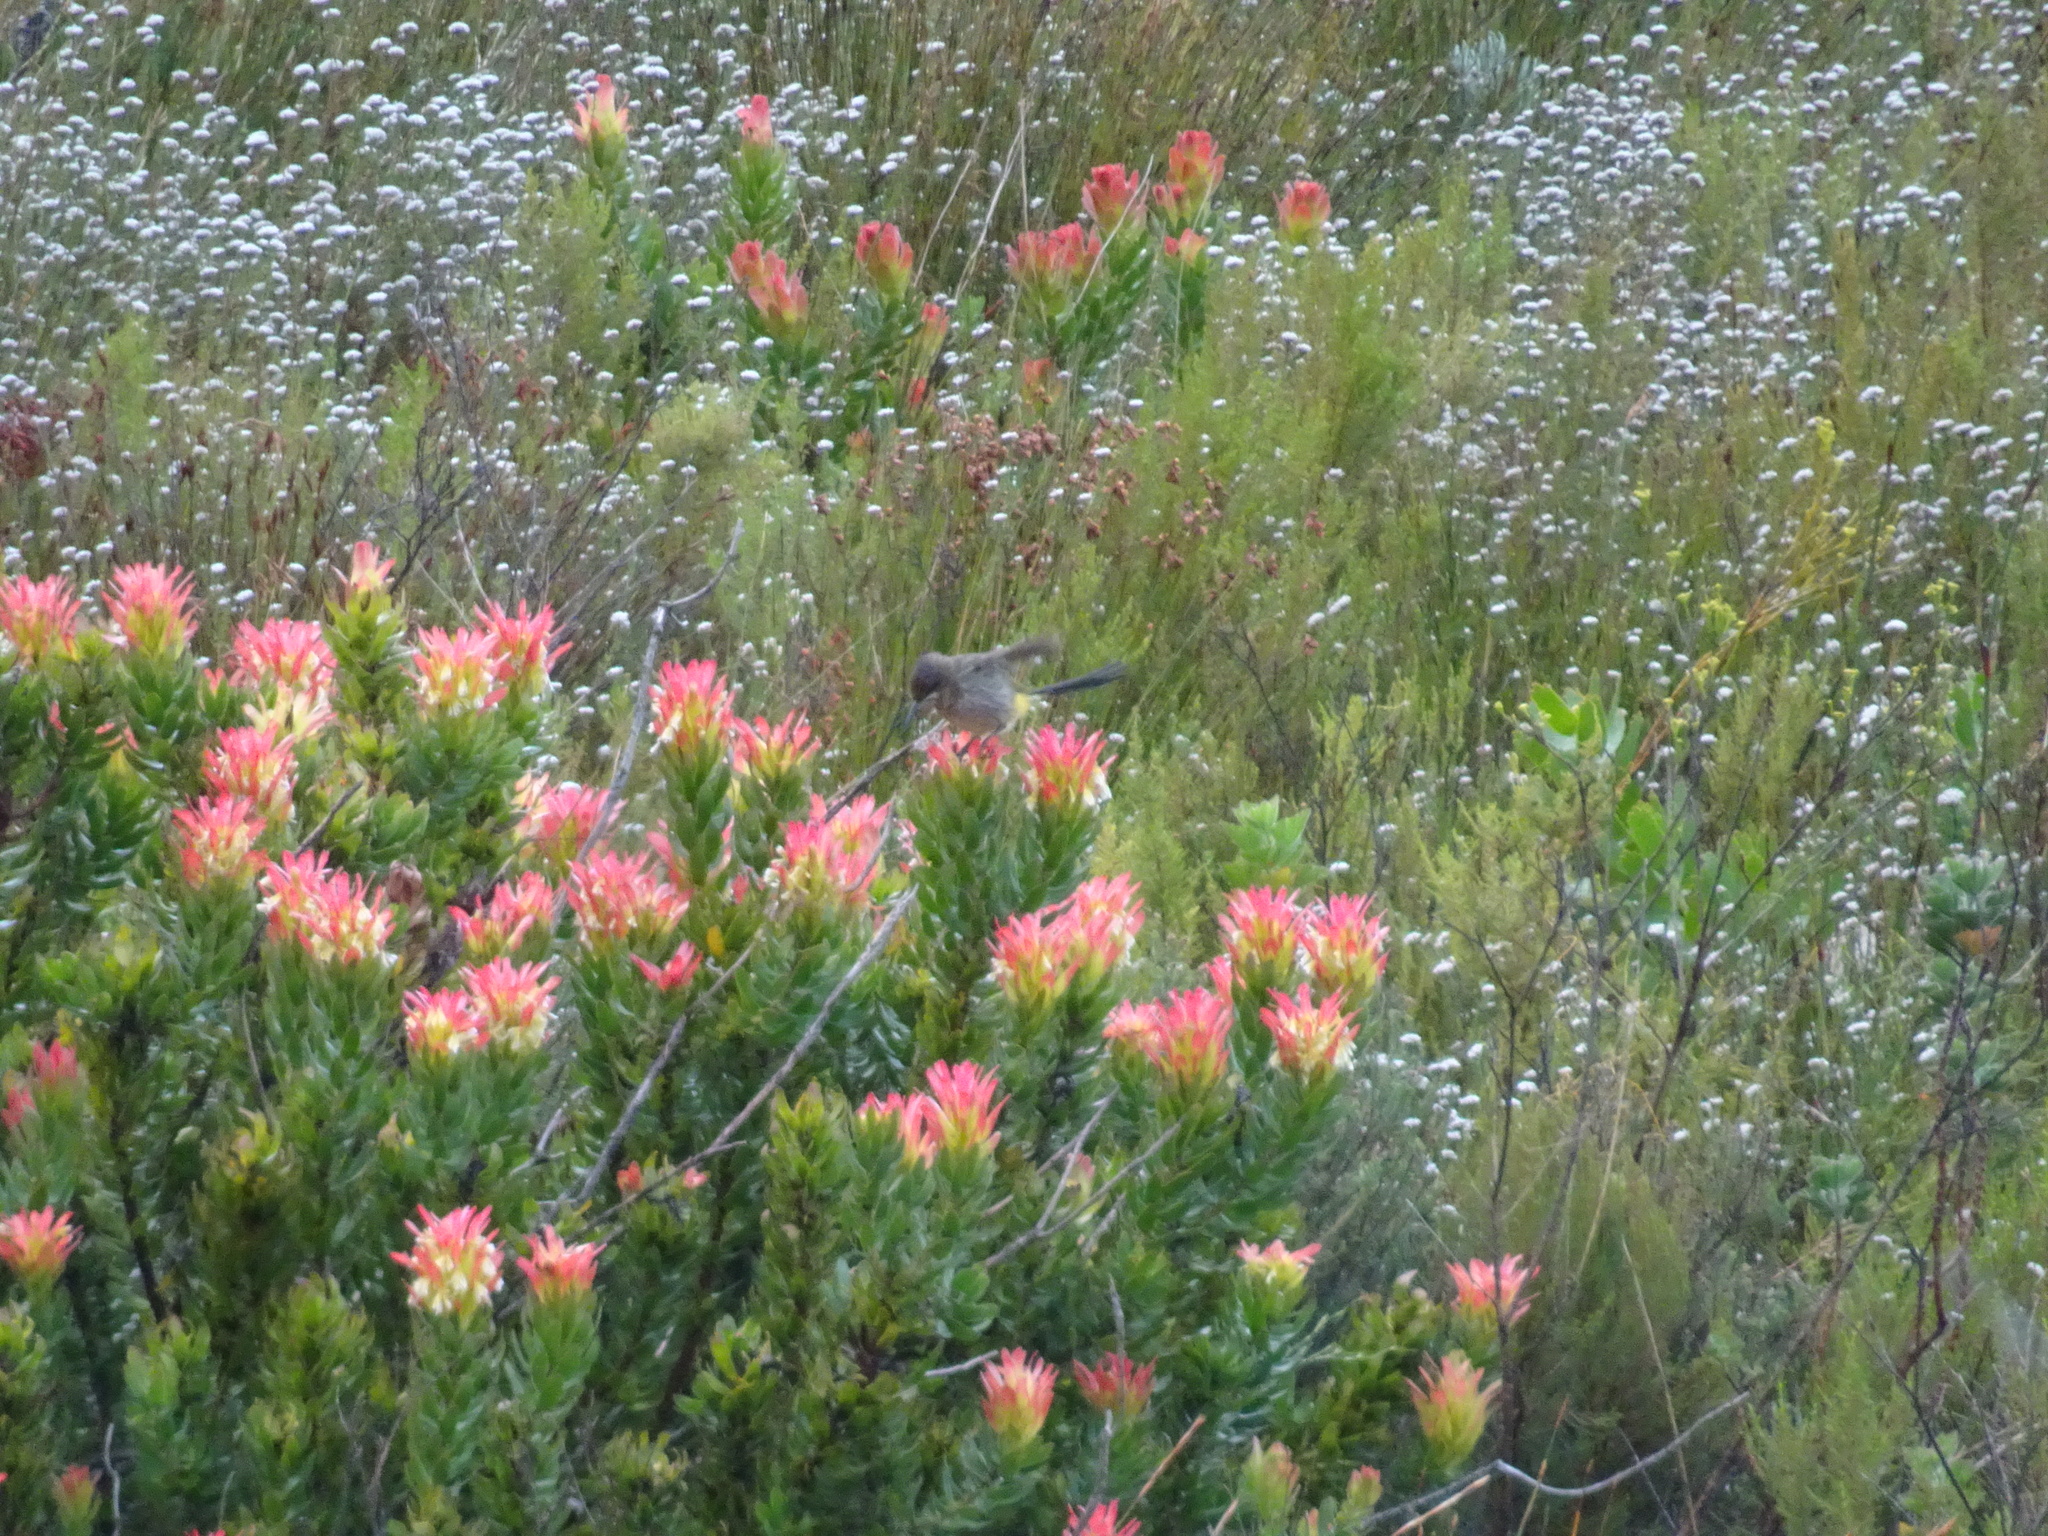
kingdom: Plantae
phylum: Tracheophyta
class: Magnoliopsida
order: Proteales
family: Proteaceae
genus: Mimetes
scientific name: Mimetes cucullatus
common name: Common pagoda
